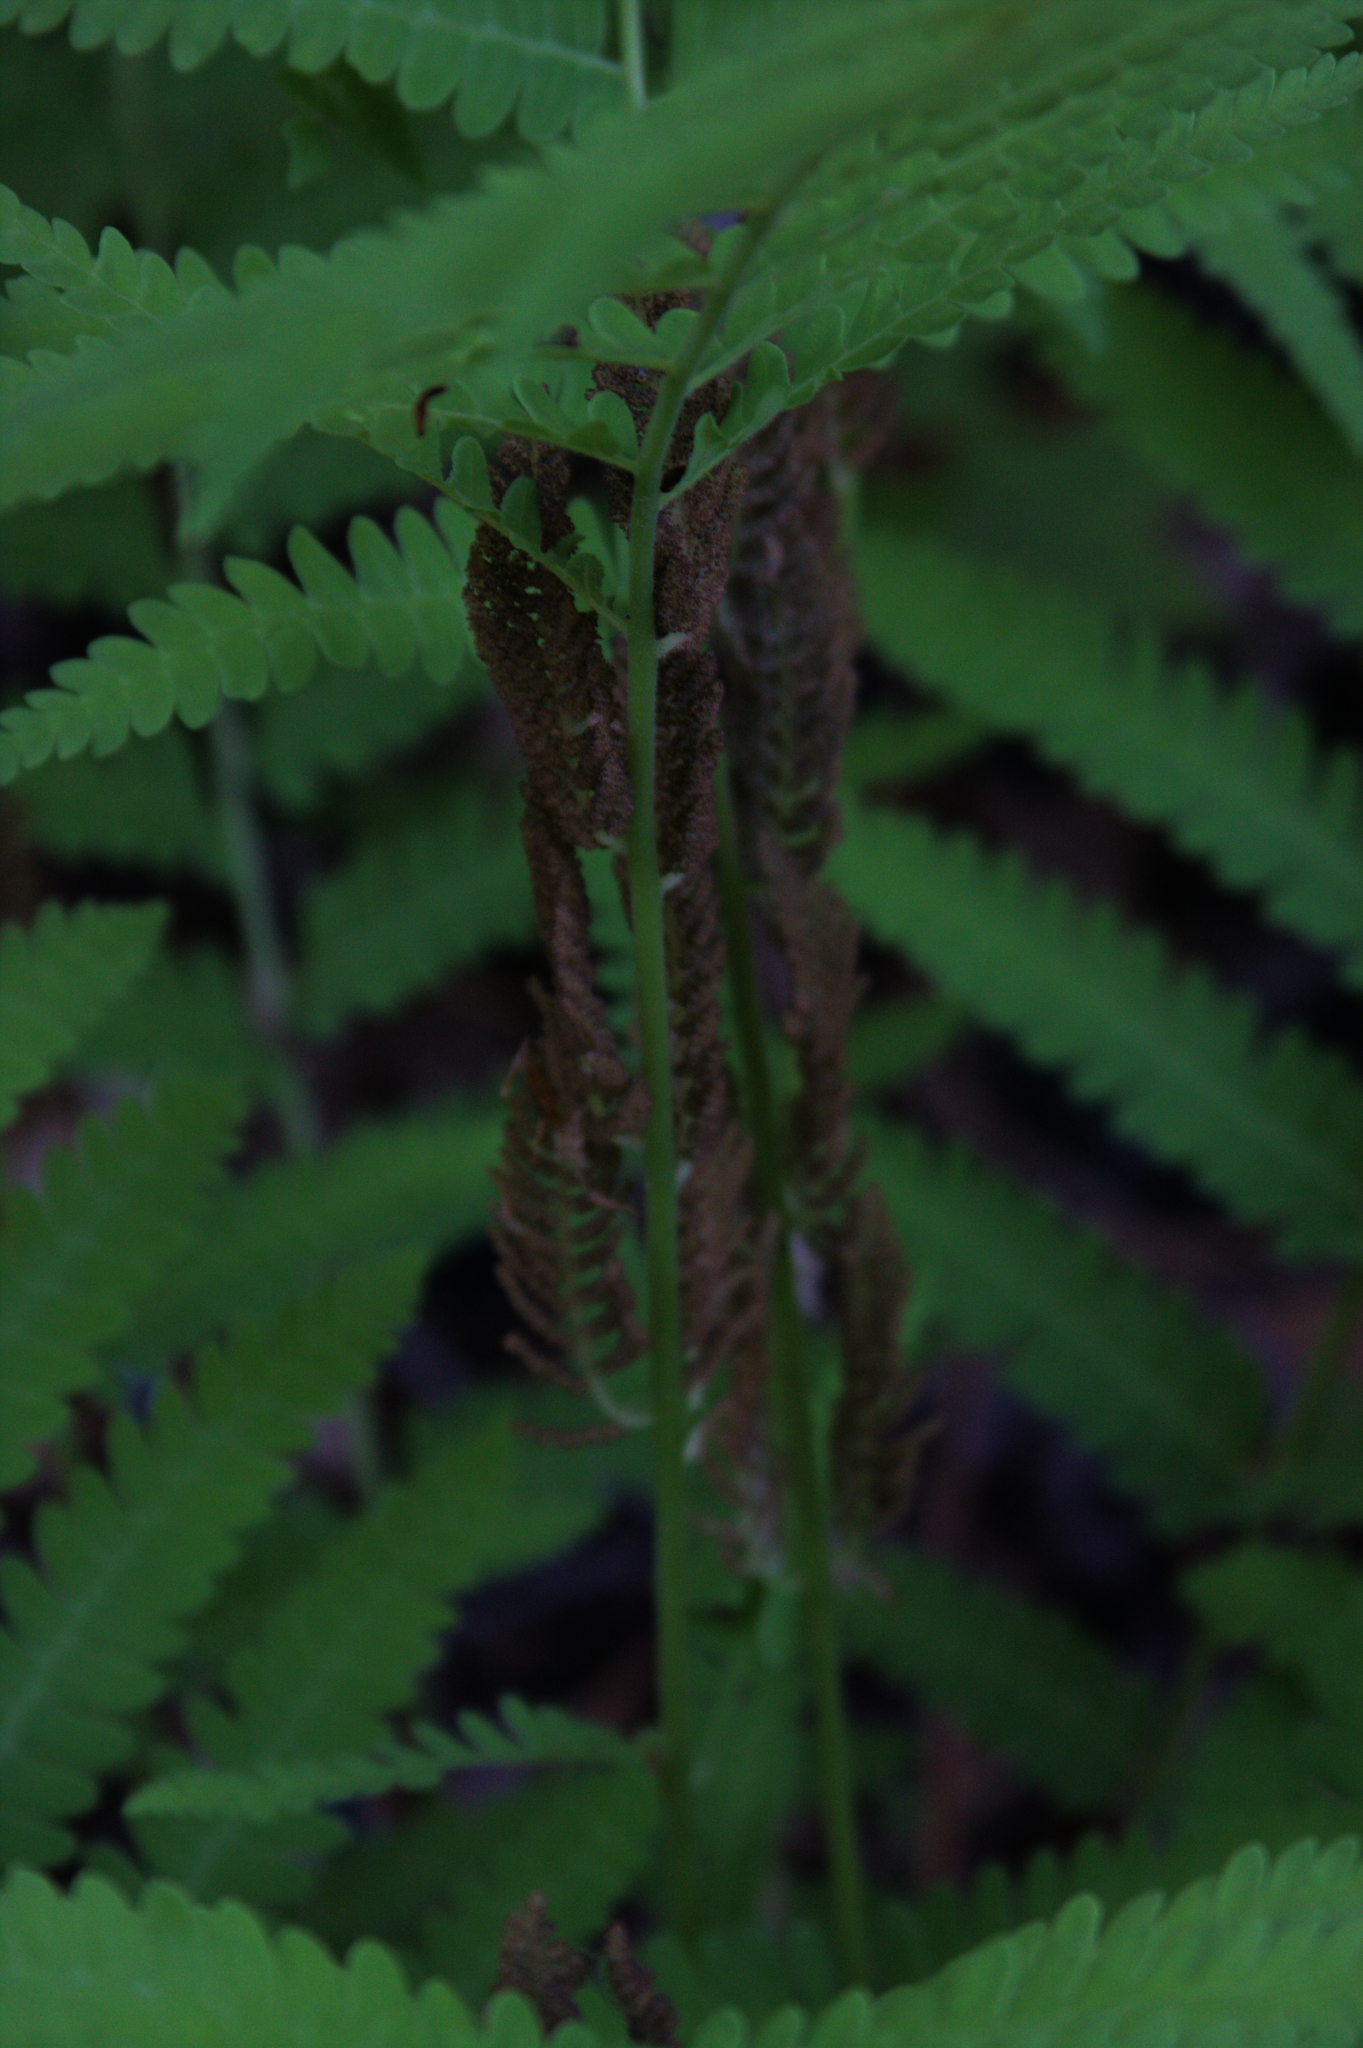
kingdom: Plantae
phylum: Tracheophyta
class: Polypodiopsida
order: Osmundales
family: Osmundaceae
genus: Claytosmunda
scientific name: Claytosmunda claytoniana
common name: Clayton's fern
